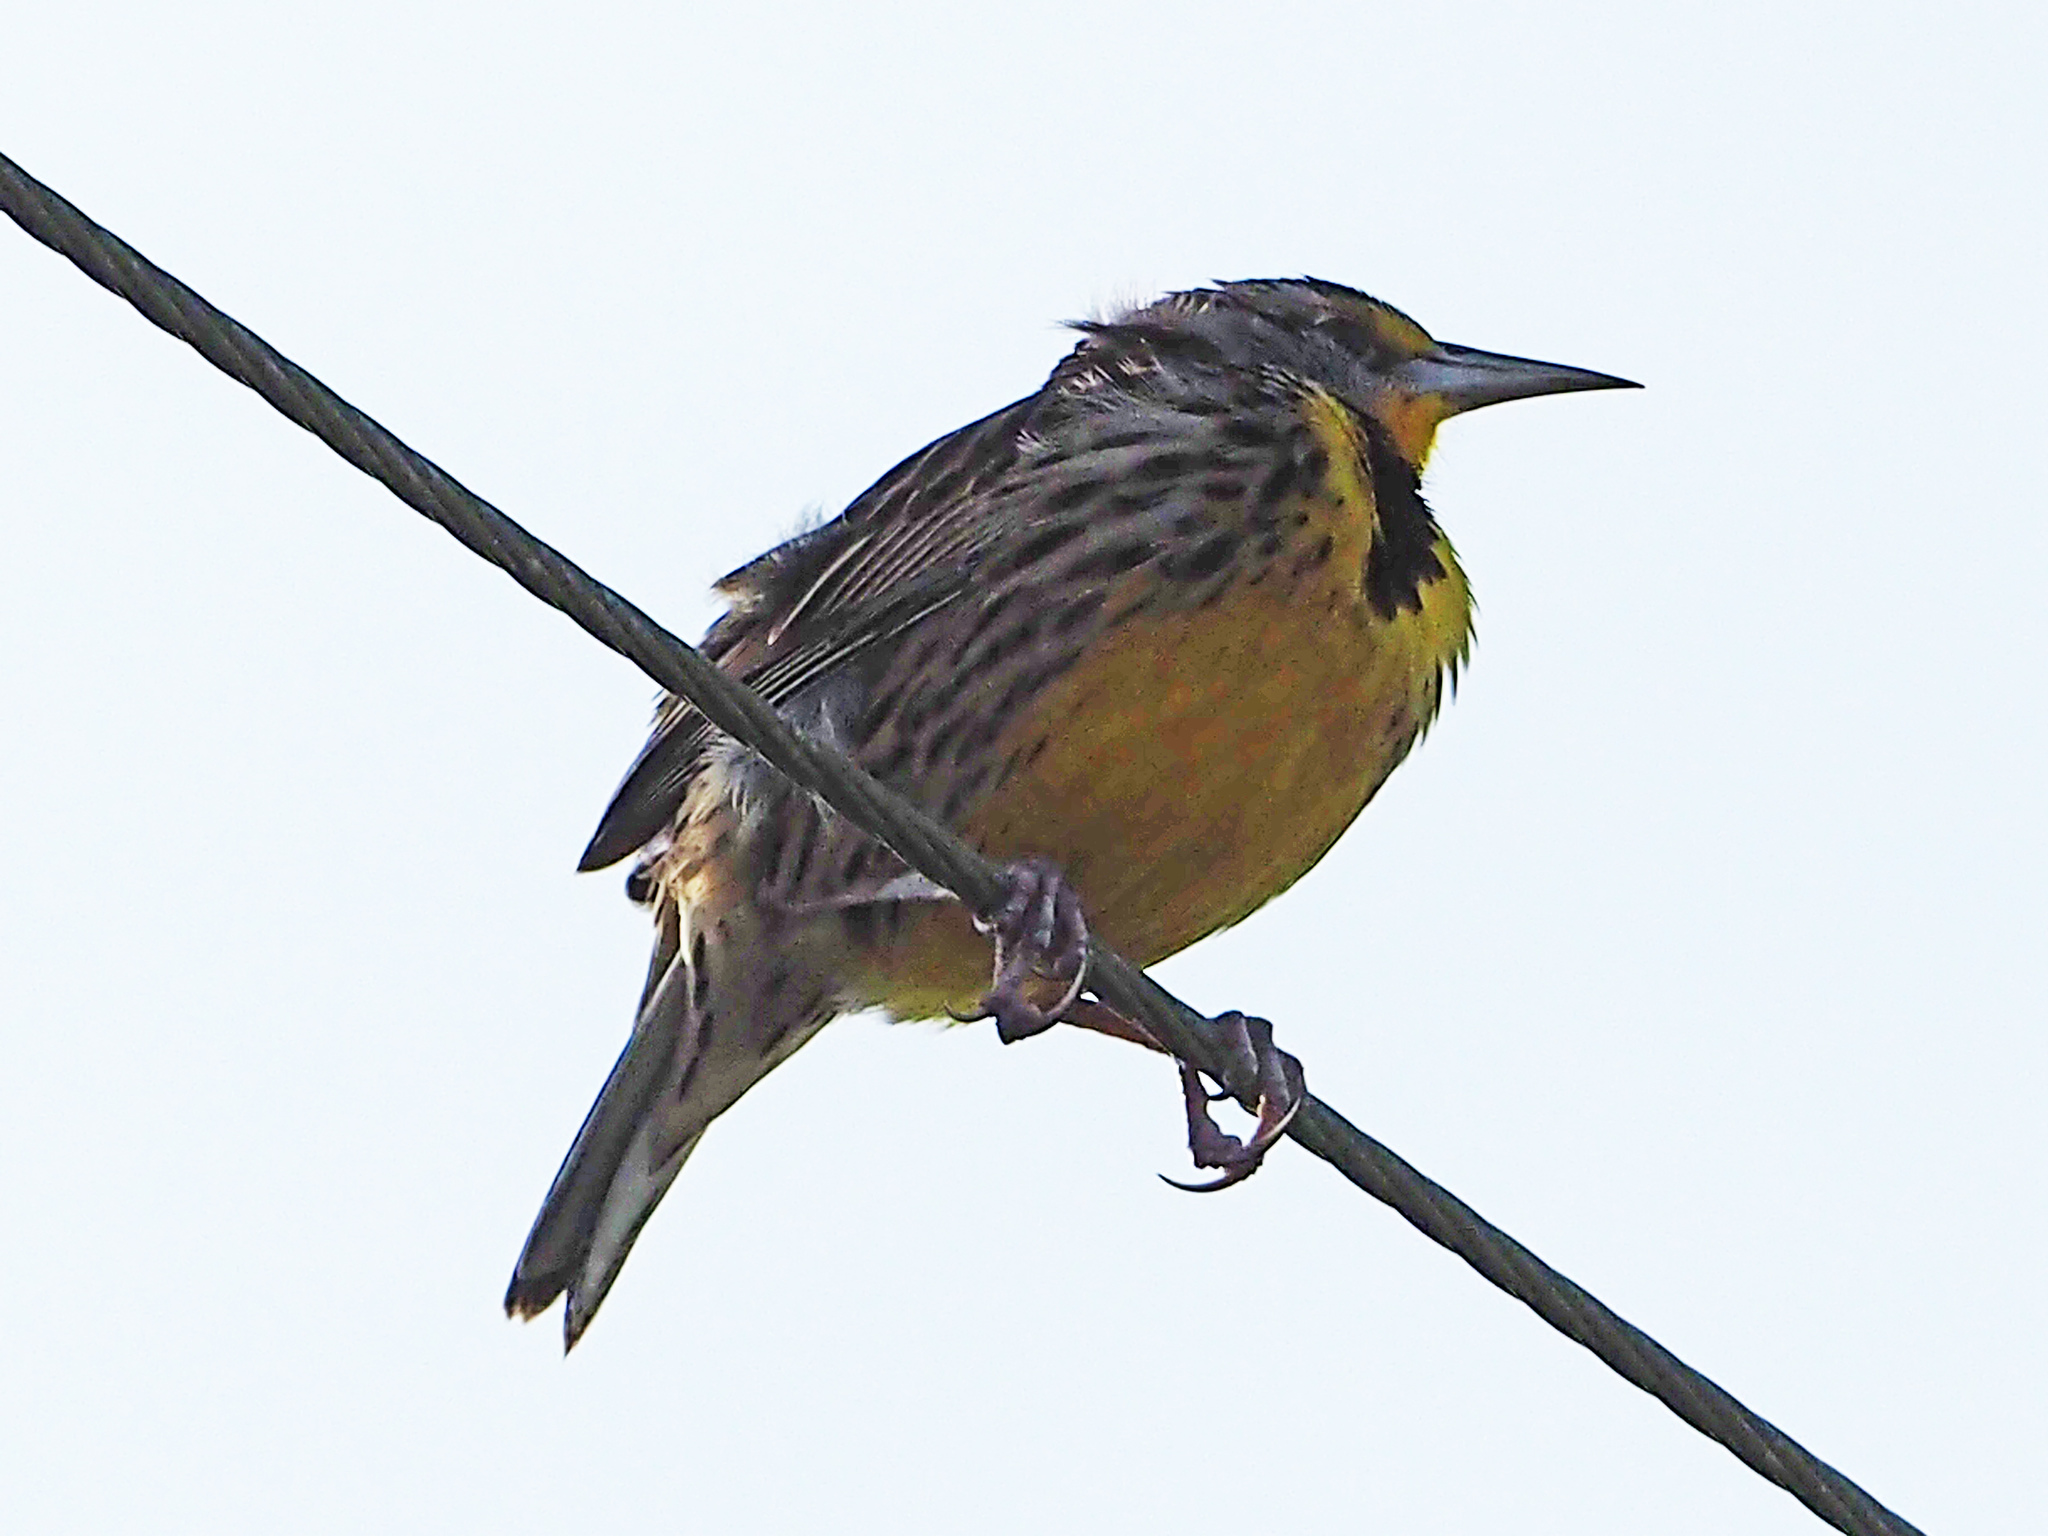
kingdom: Animalia
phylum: Chordata
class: Aves
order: Passeriformes
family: Icteridae
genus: Sturnella
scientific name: Sturnella magna
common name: Eastern meadowlark
